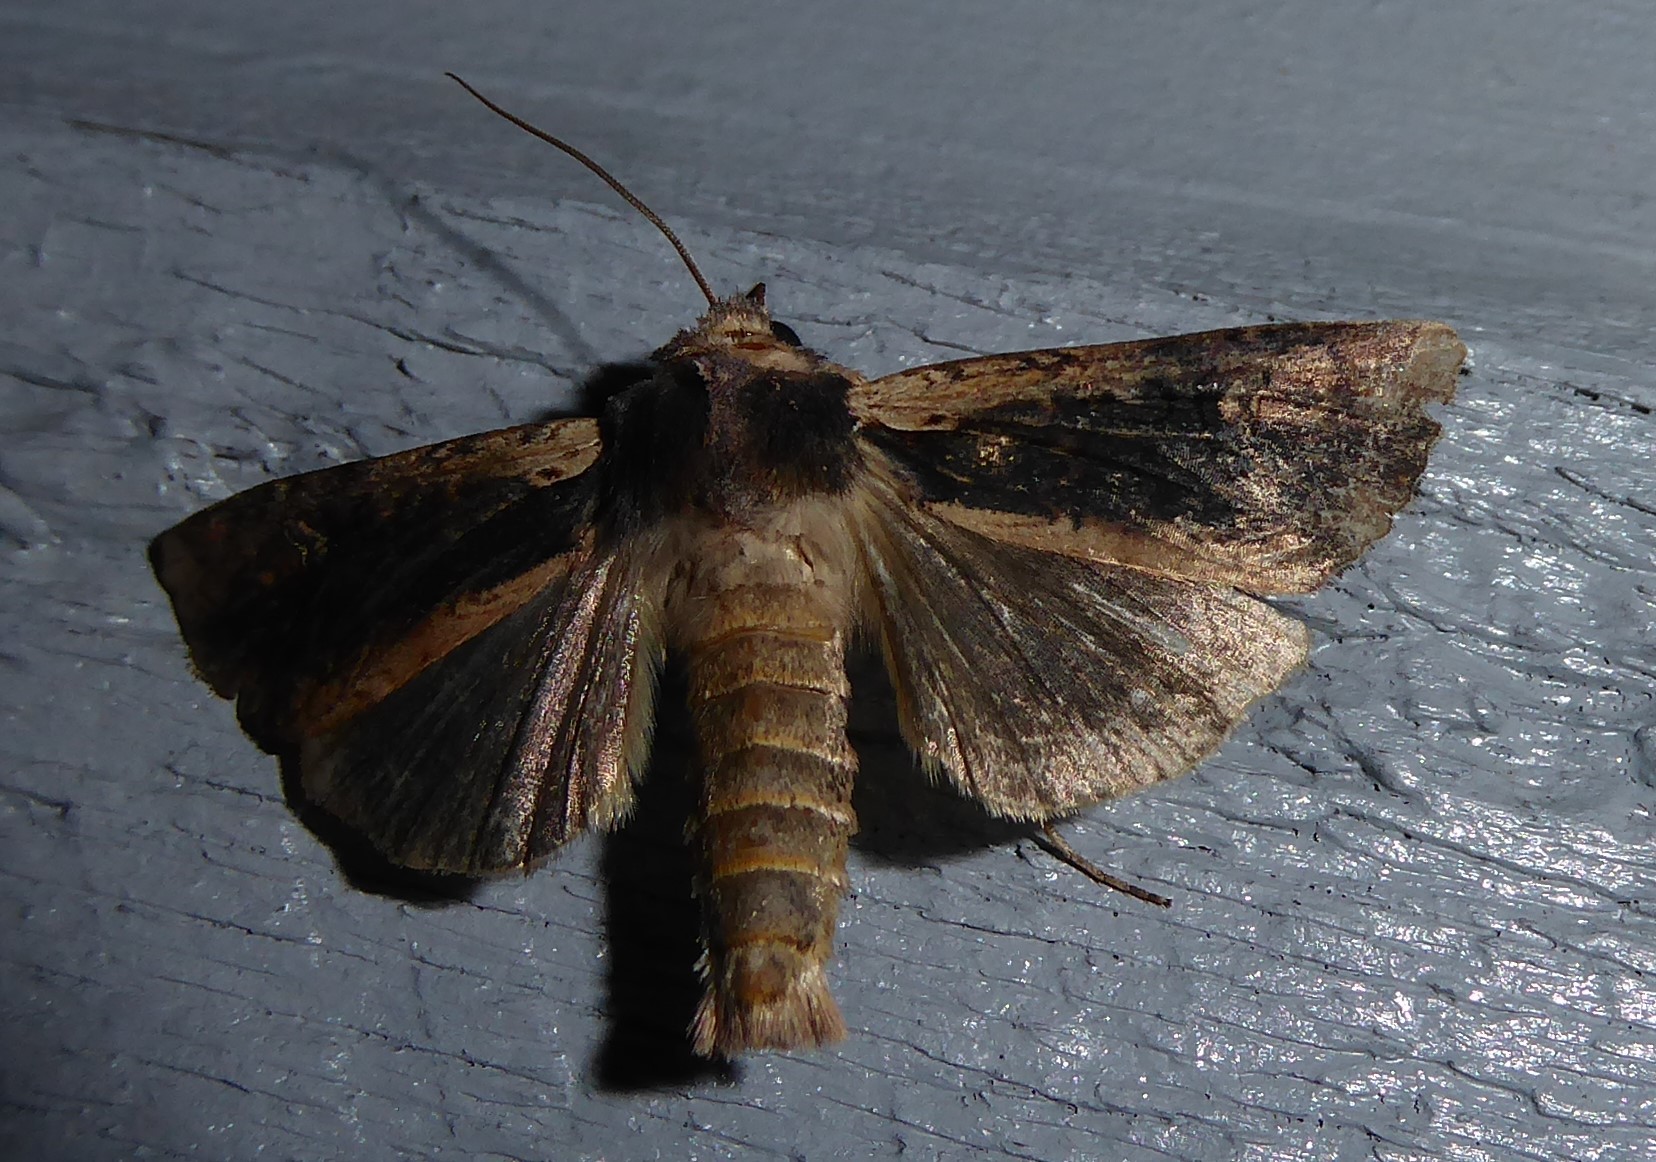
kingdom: Animalia
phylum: Arthropoda
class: Insecta
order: Lepidoptera
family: Noctuidae
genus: Ichneutica
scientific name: Ichneutica omoplaca
